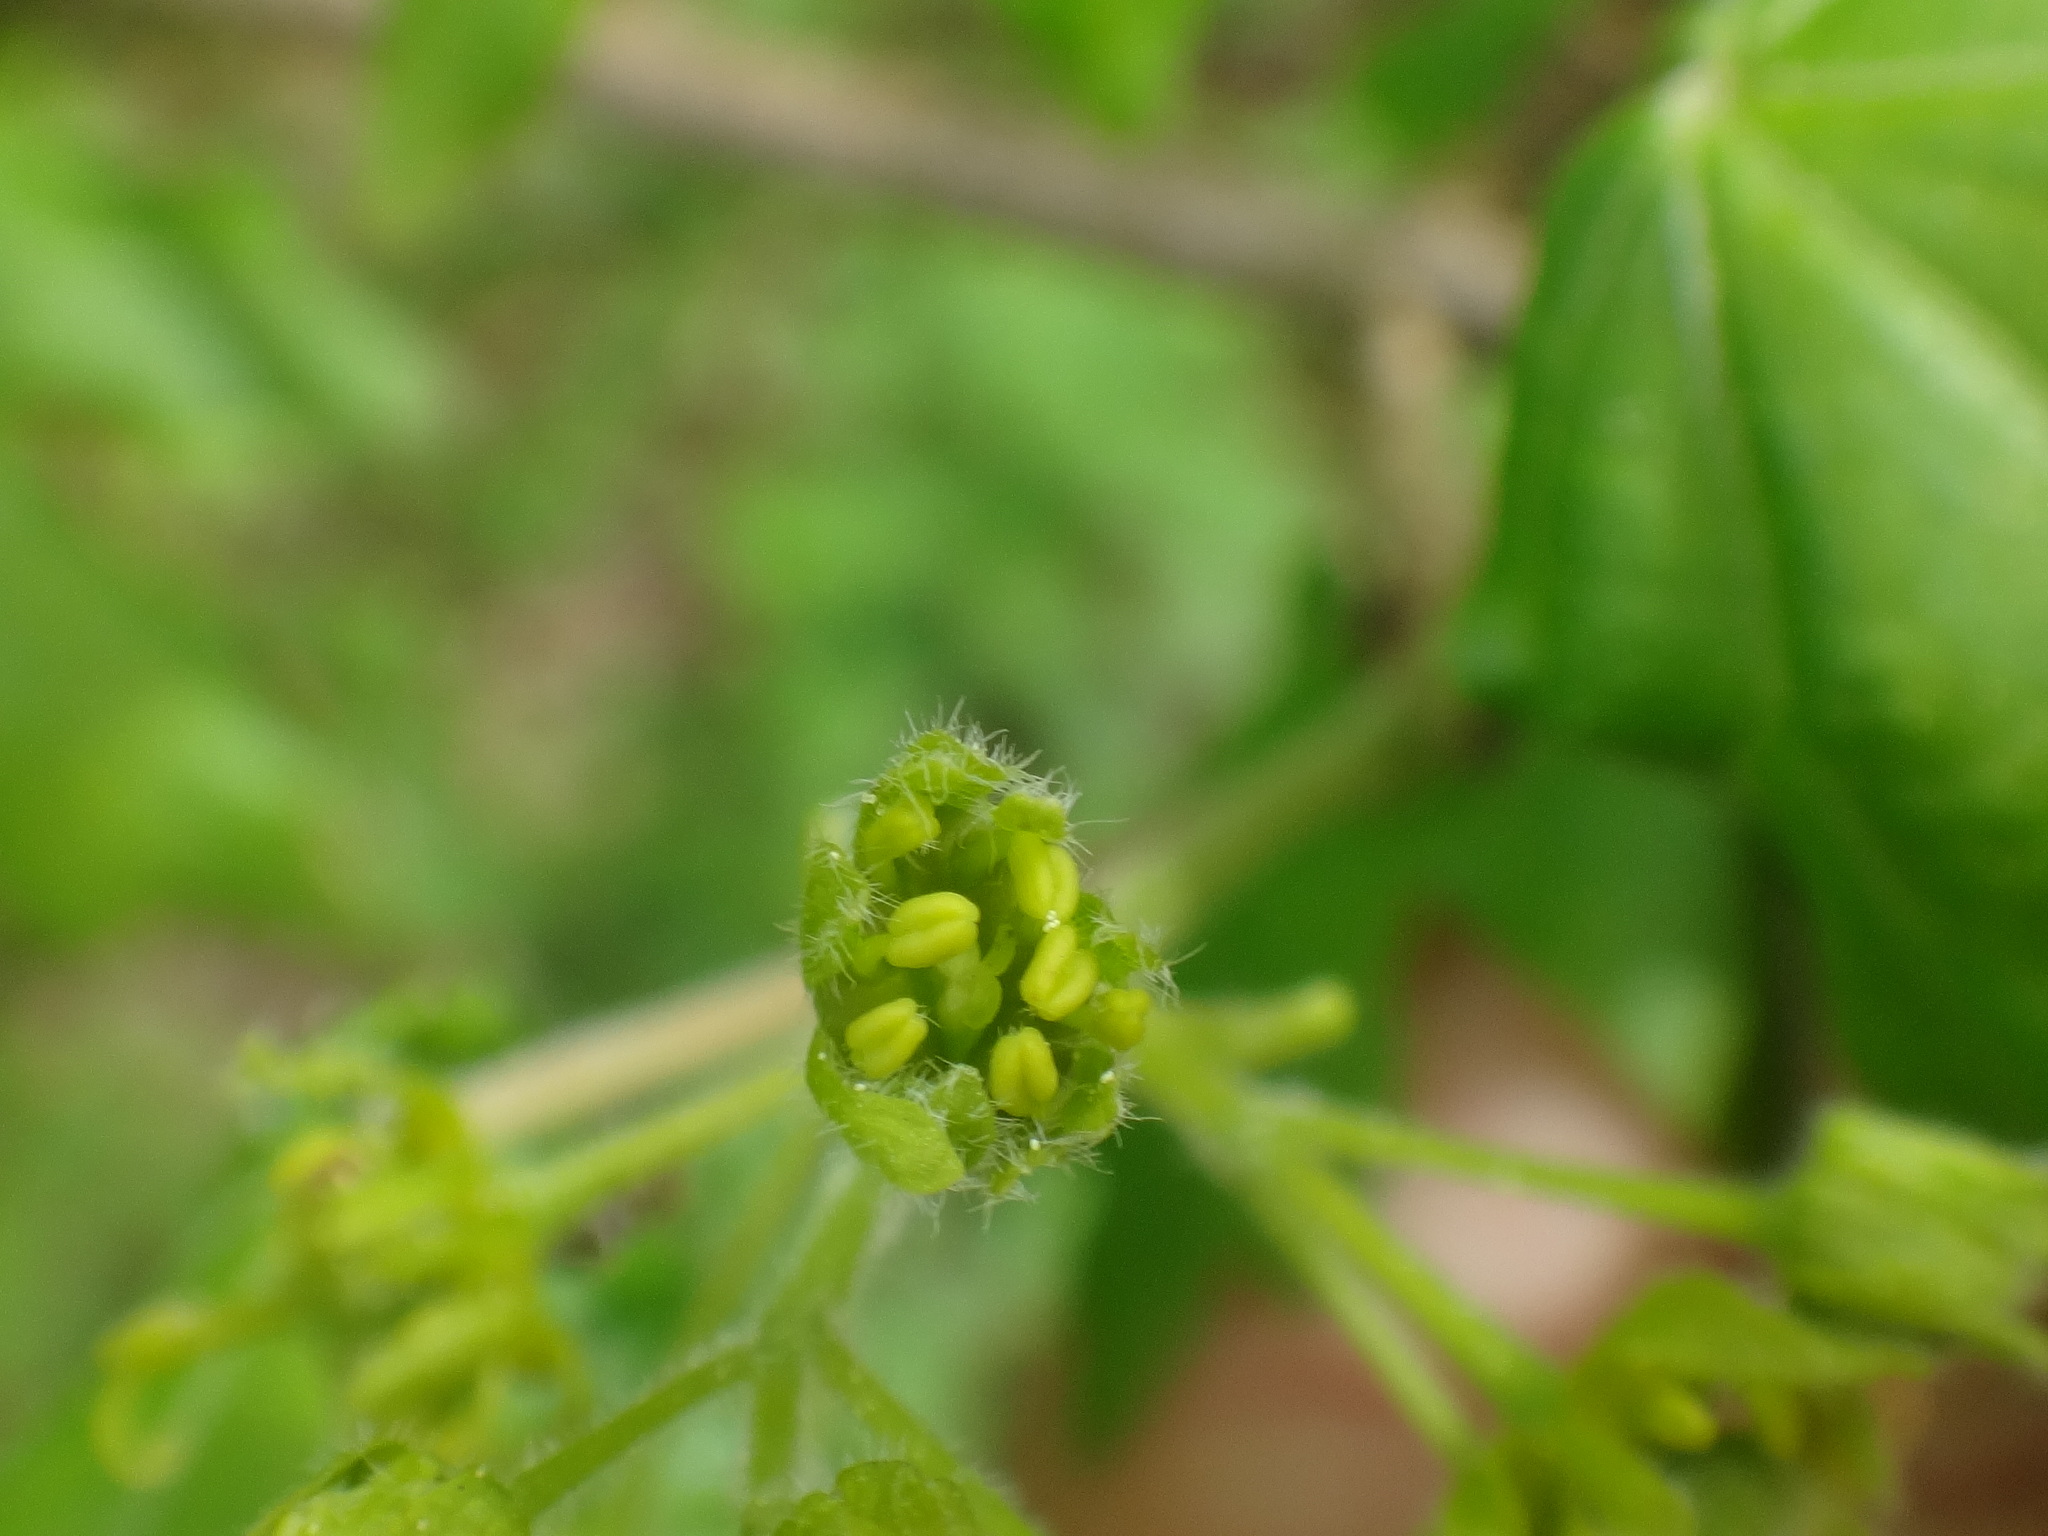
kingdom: Plantae
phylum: Tracheophyta
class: Magnoliopsida
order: Sapindales
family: Sapindaceae
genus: Acer
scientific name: Acer campestre
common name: Field maple
